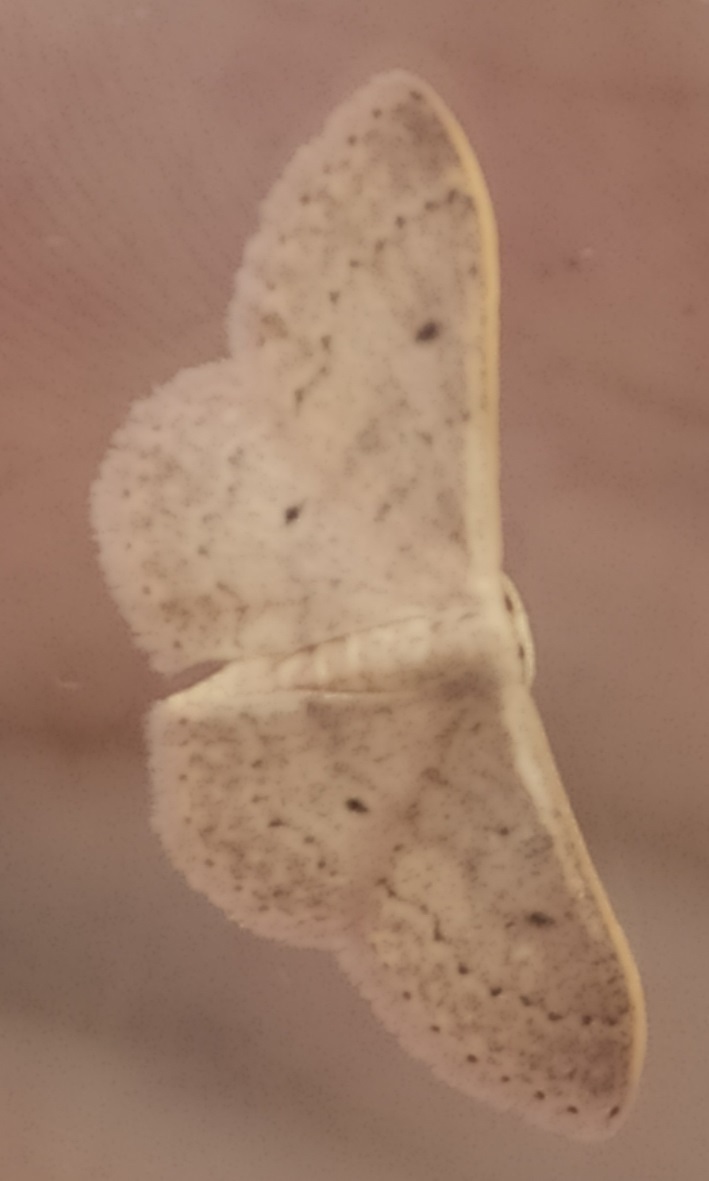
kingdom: Animalia
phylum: Arthropoda
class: Insecta
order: Lepidoptera
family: Geometridae
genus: Idaea
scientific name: Idaea eugeniata
